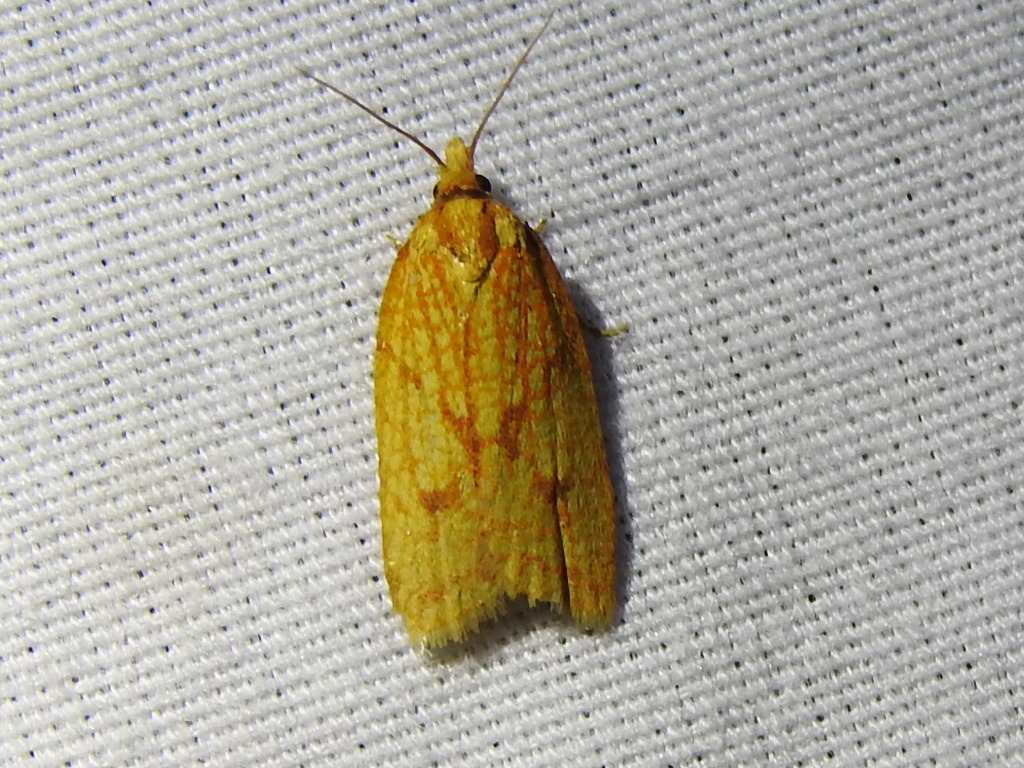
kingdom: Animalia
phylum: Arthropoda
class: Insecta
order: Lepidoptera
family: Tortricidae
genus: Sparganothis
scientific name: Sparganothis sulfureana
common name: Sparganothis fruitworm moth
